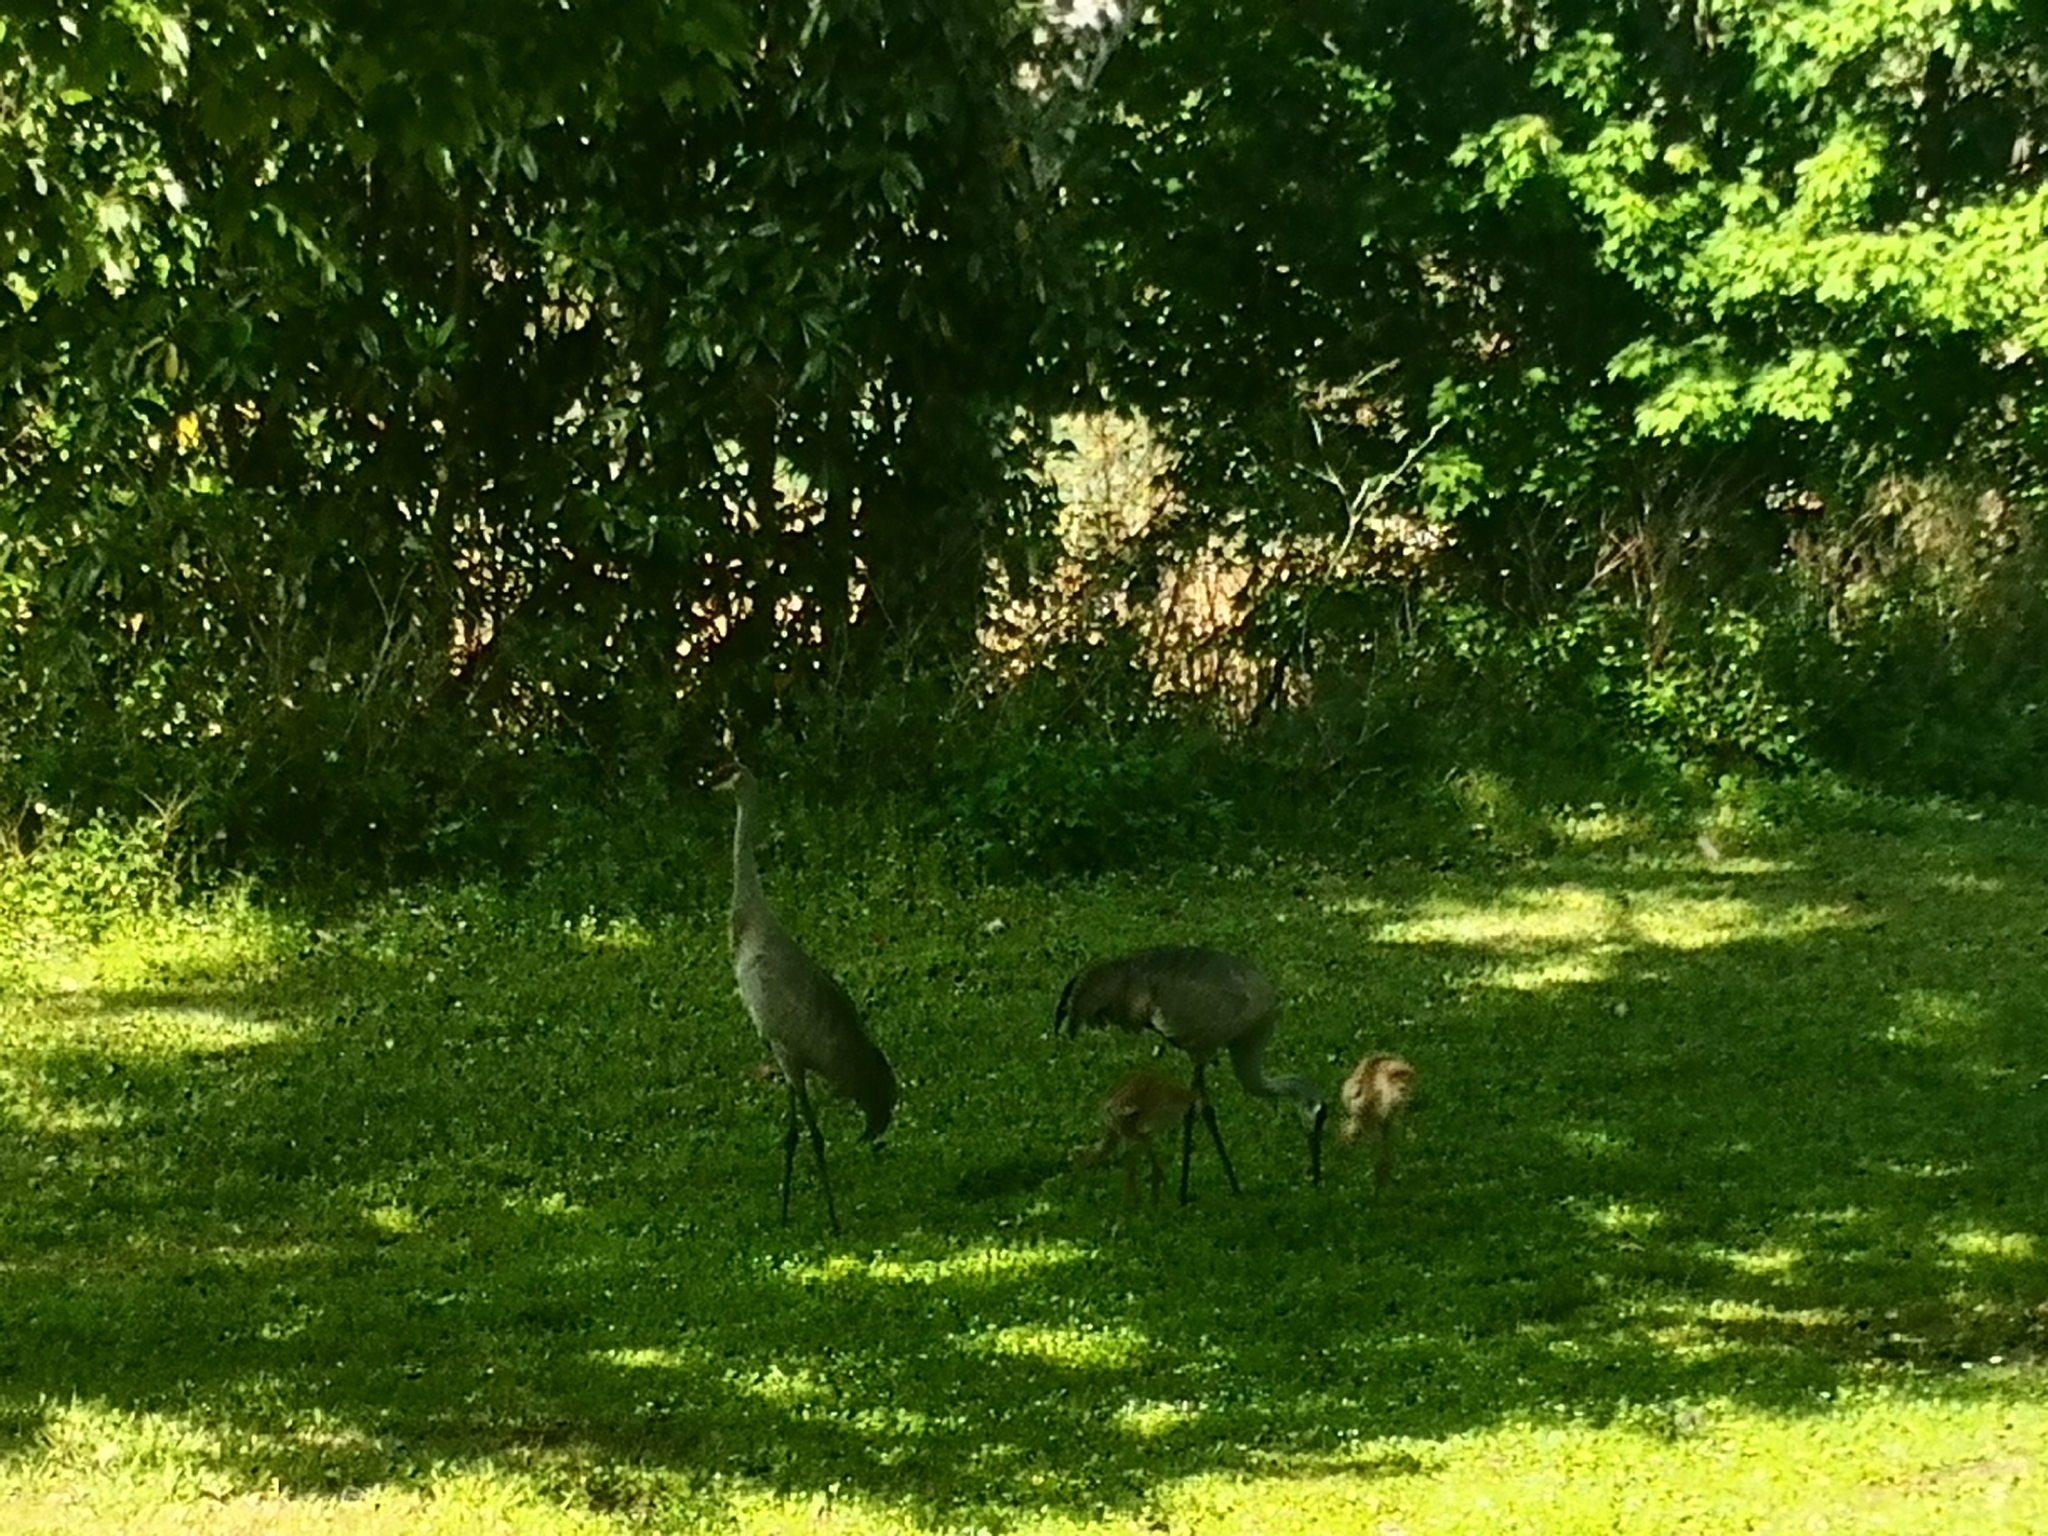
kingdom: Animalia
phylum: Chordata
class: Aves
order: Gruiformes
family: Gruidae
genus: Grus
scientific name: Grus canadensis
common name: Sandhill crane
